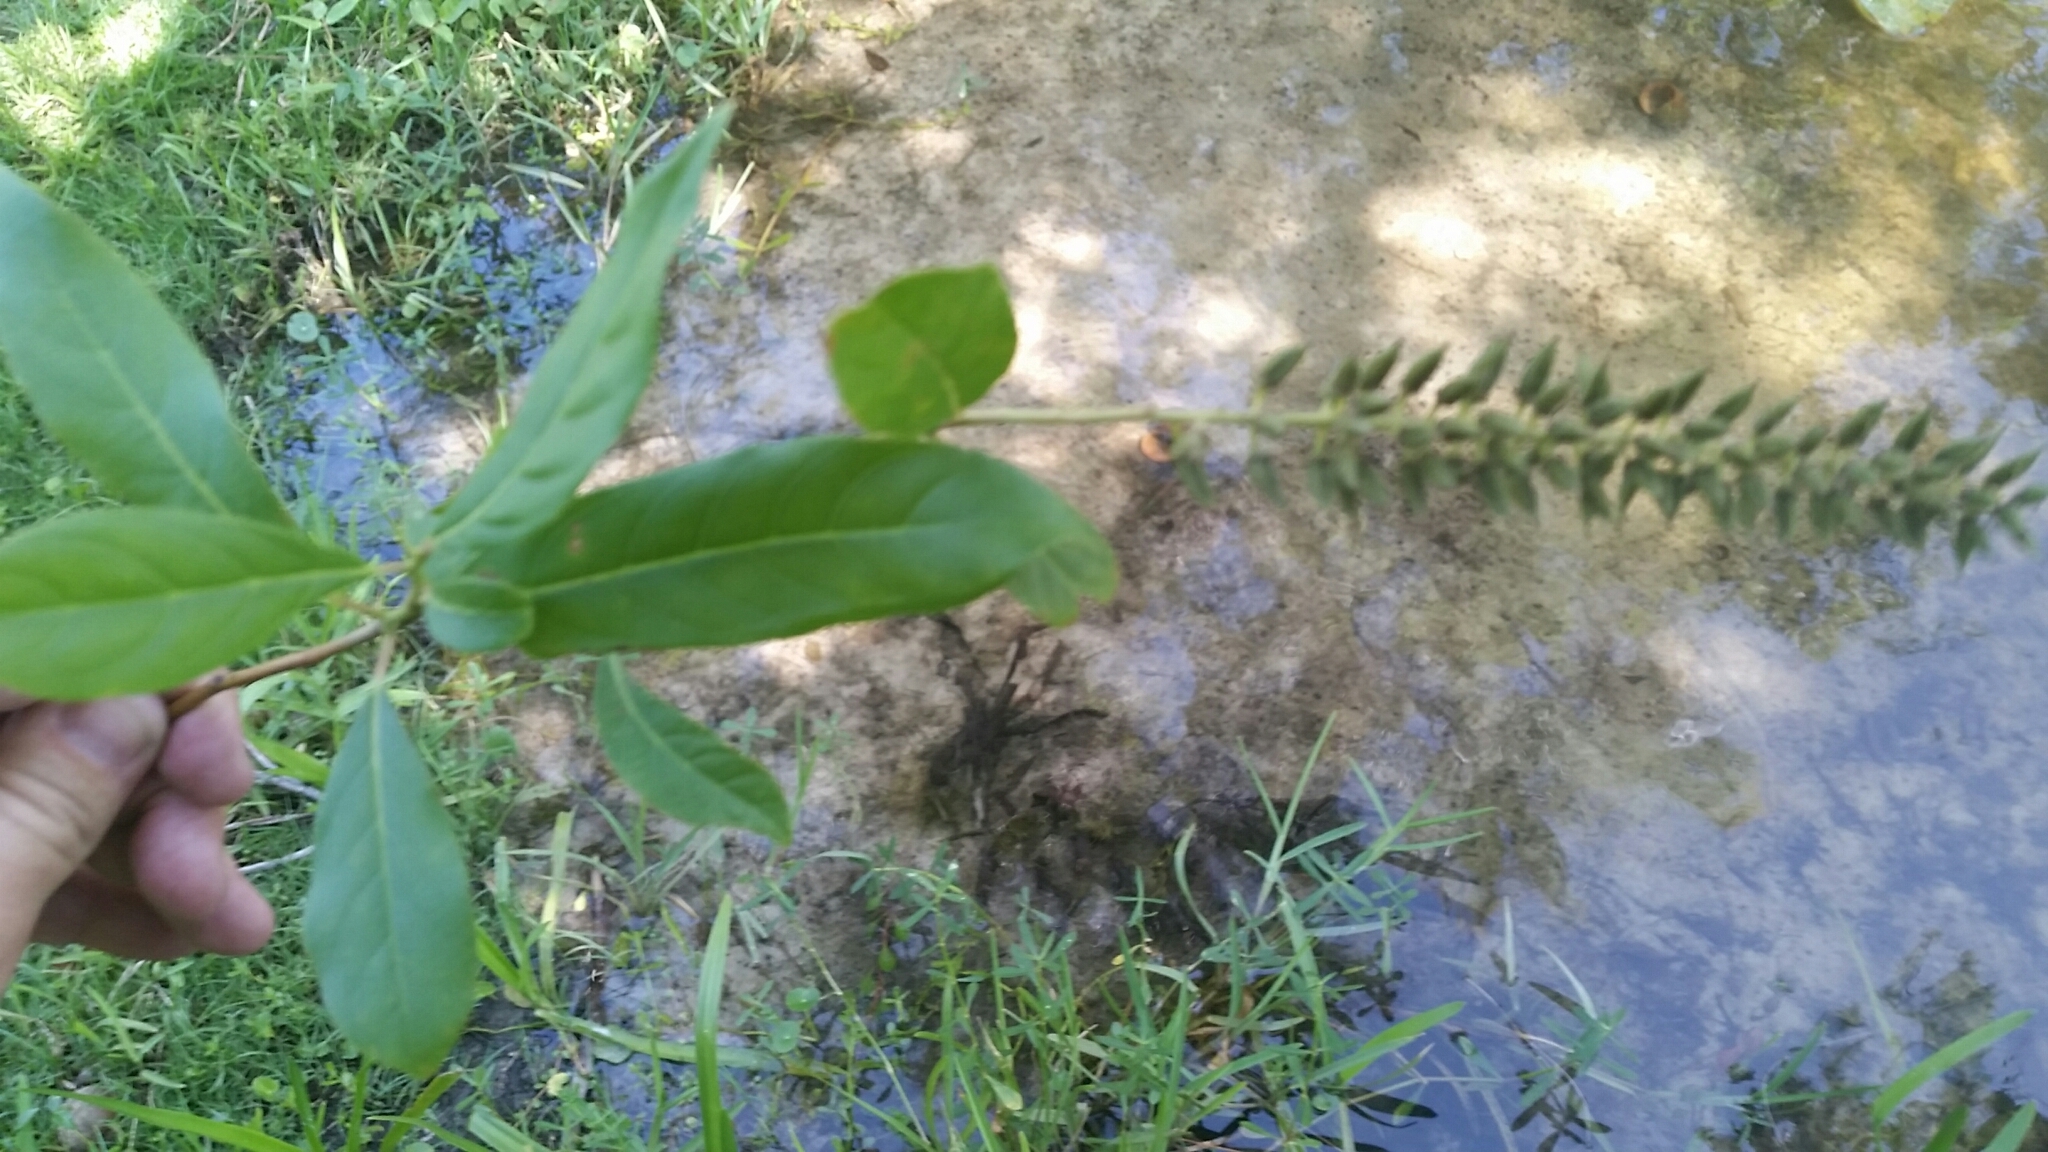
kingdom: Plantae
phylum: Tracheophyta
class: Magnoliopsida
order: Saxifragales
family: Iteaceae
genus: Itea
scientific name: Itea virginica
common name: Sweetspire
